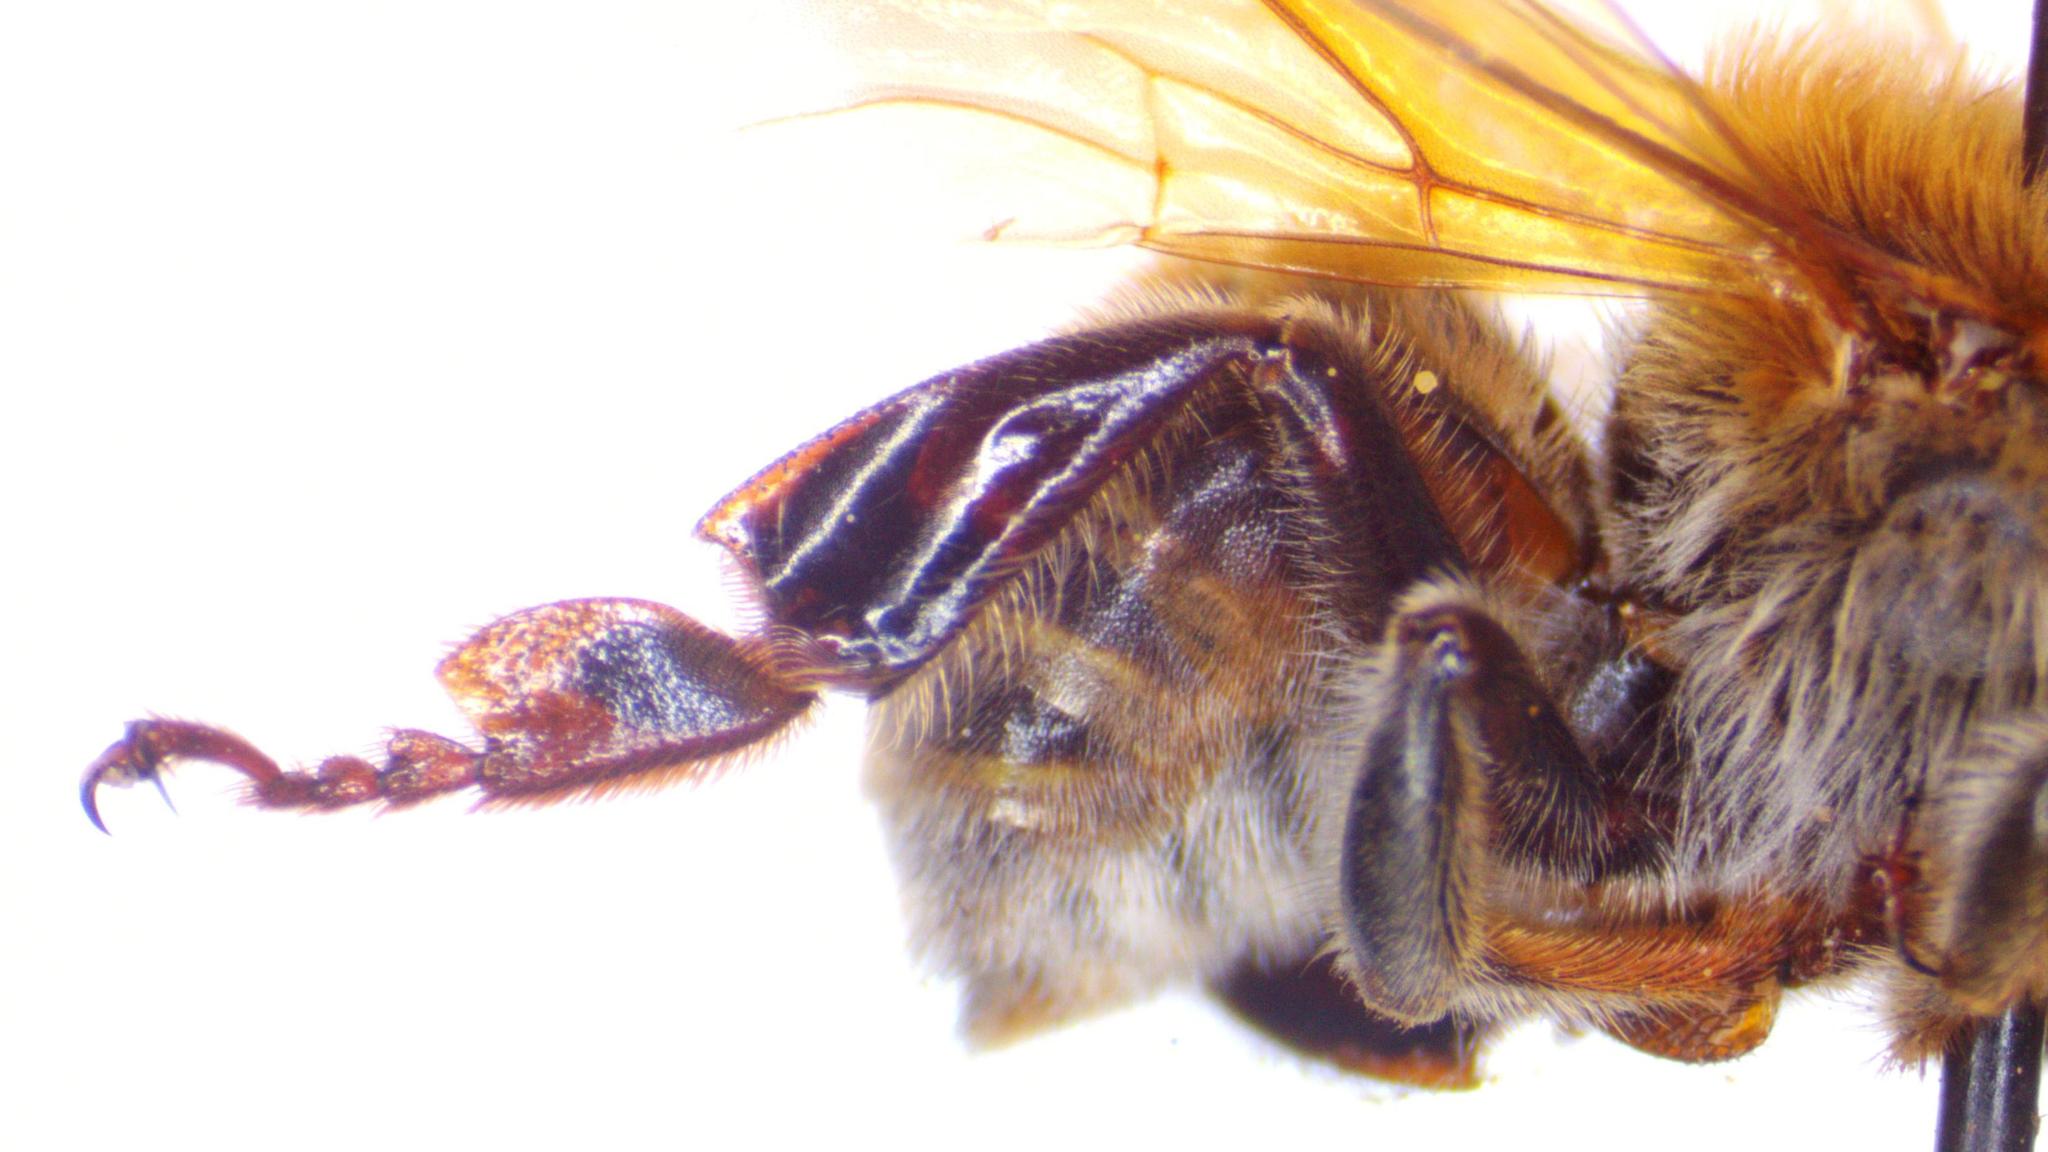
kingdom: Animalia
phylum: Arthropoda
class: Insecta
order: Hymenoptera
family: Apidae
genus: Melipona
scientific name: Melipona beecheii
